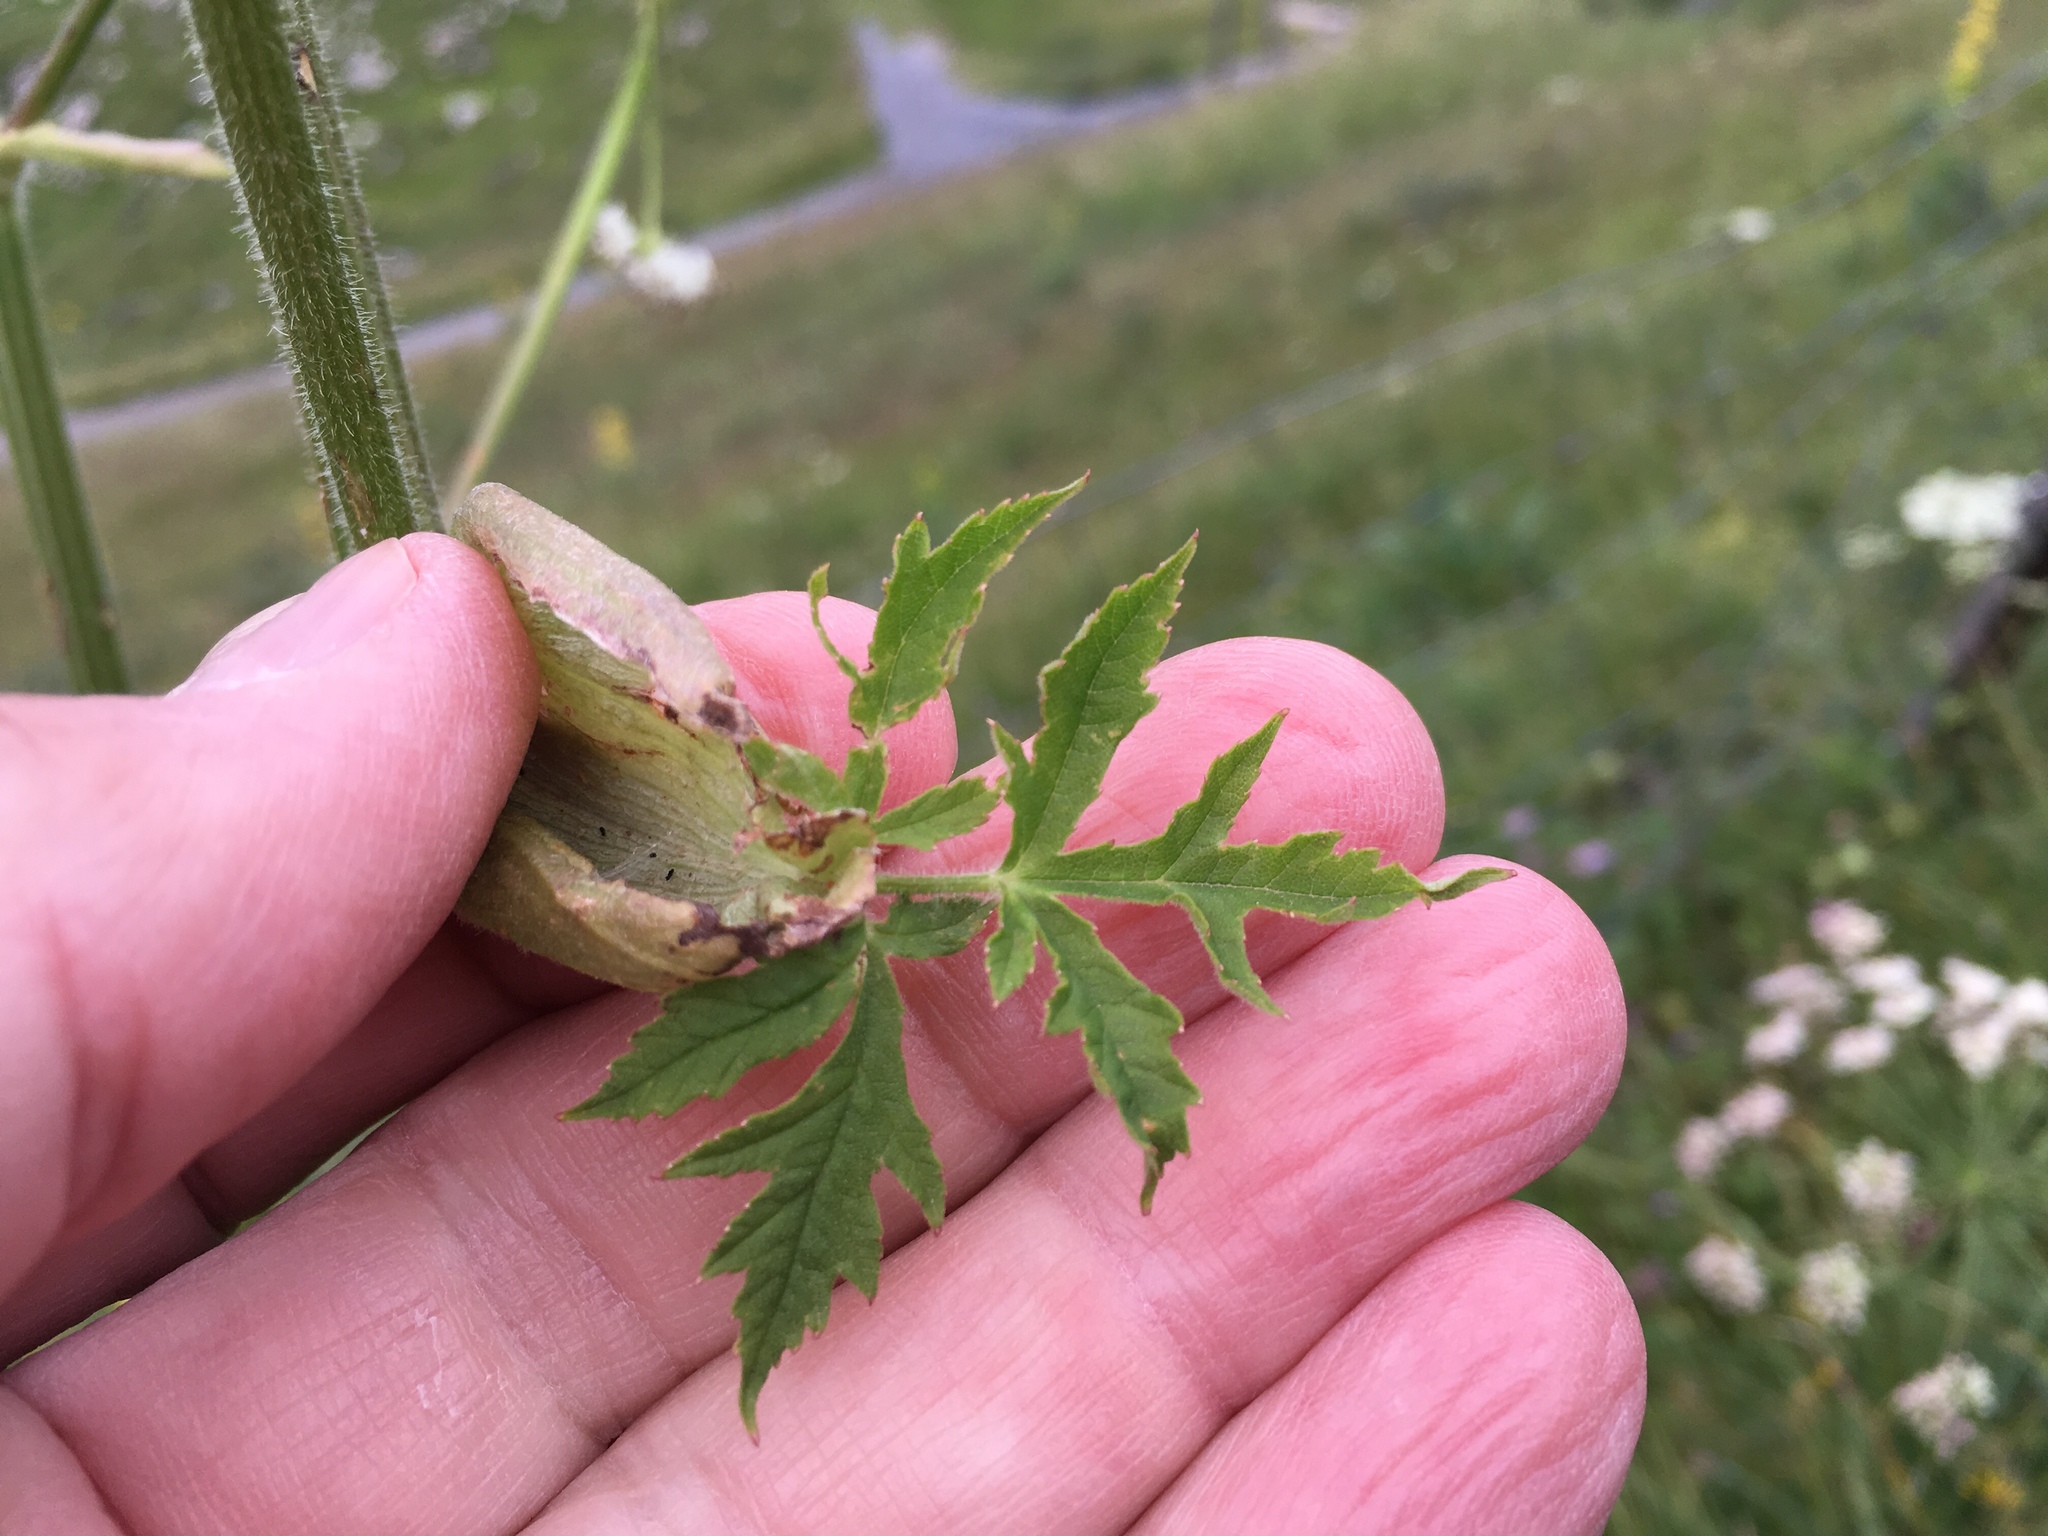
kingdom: Plantae
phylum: Tracheophyta
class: Magnoliopsida
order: Apiales
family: Apiaceae
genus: Heracleum
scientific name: Heracleum sphondylium
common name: Hogweed
